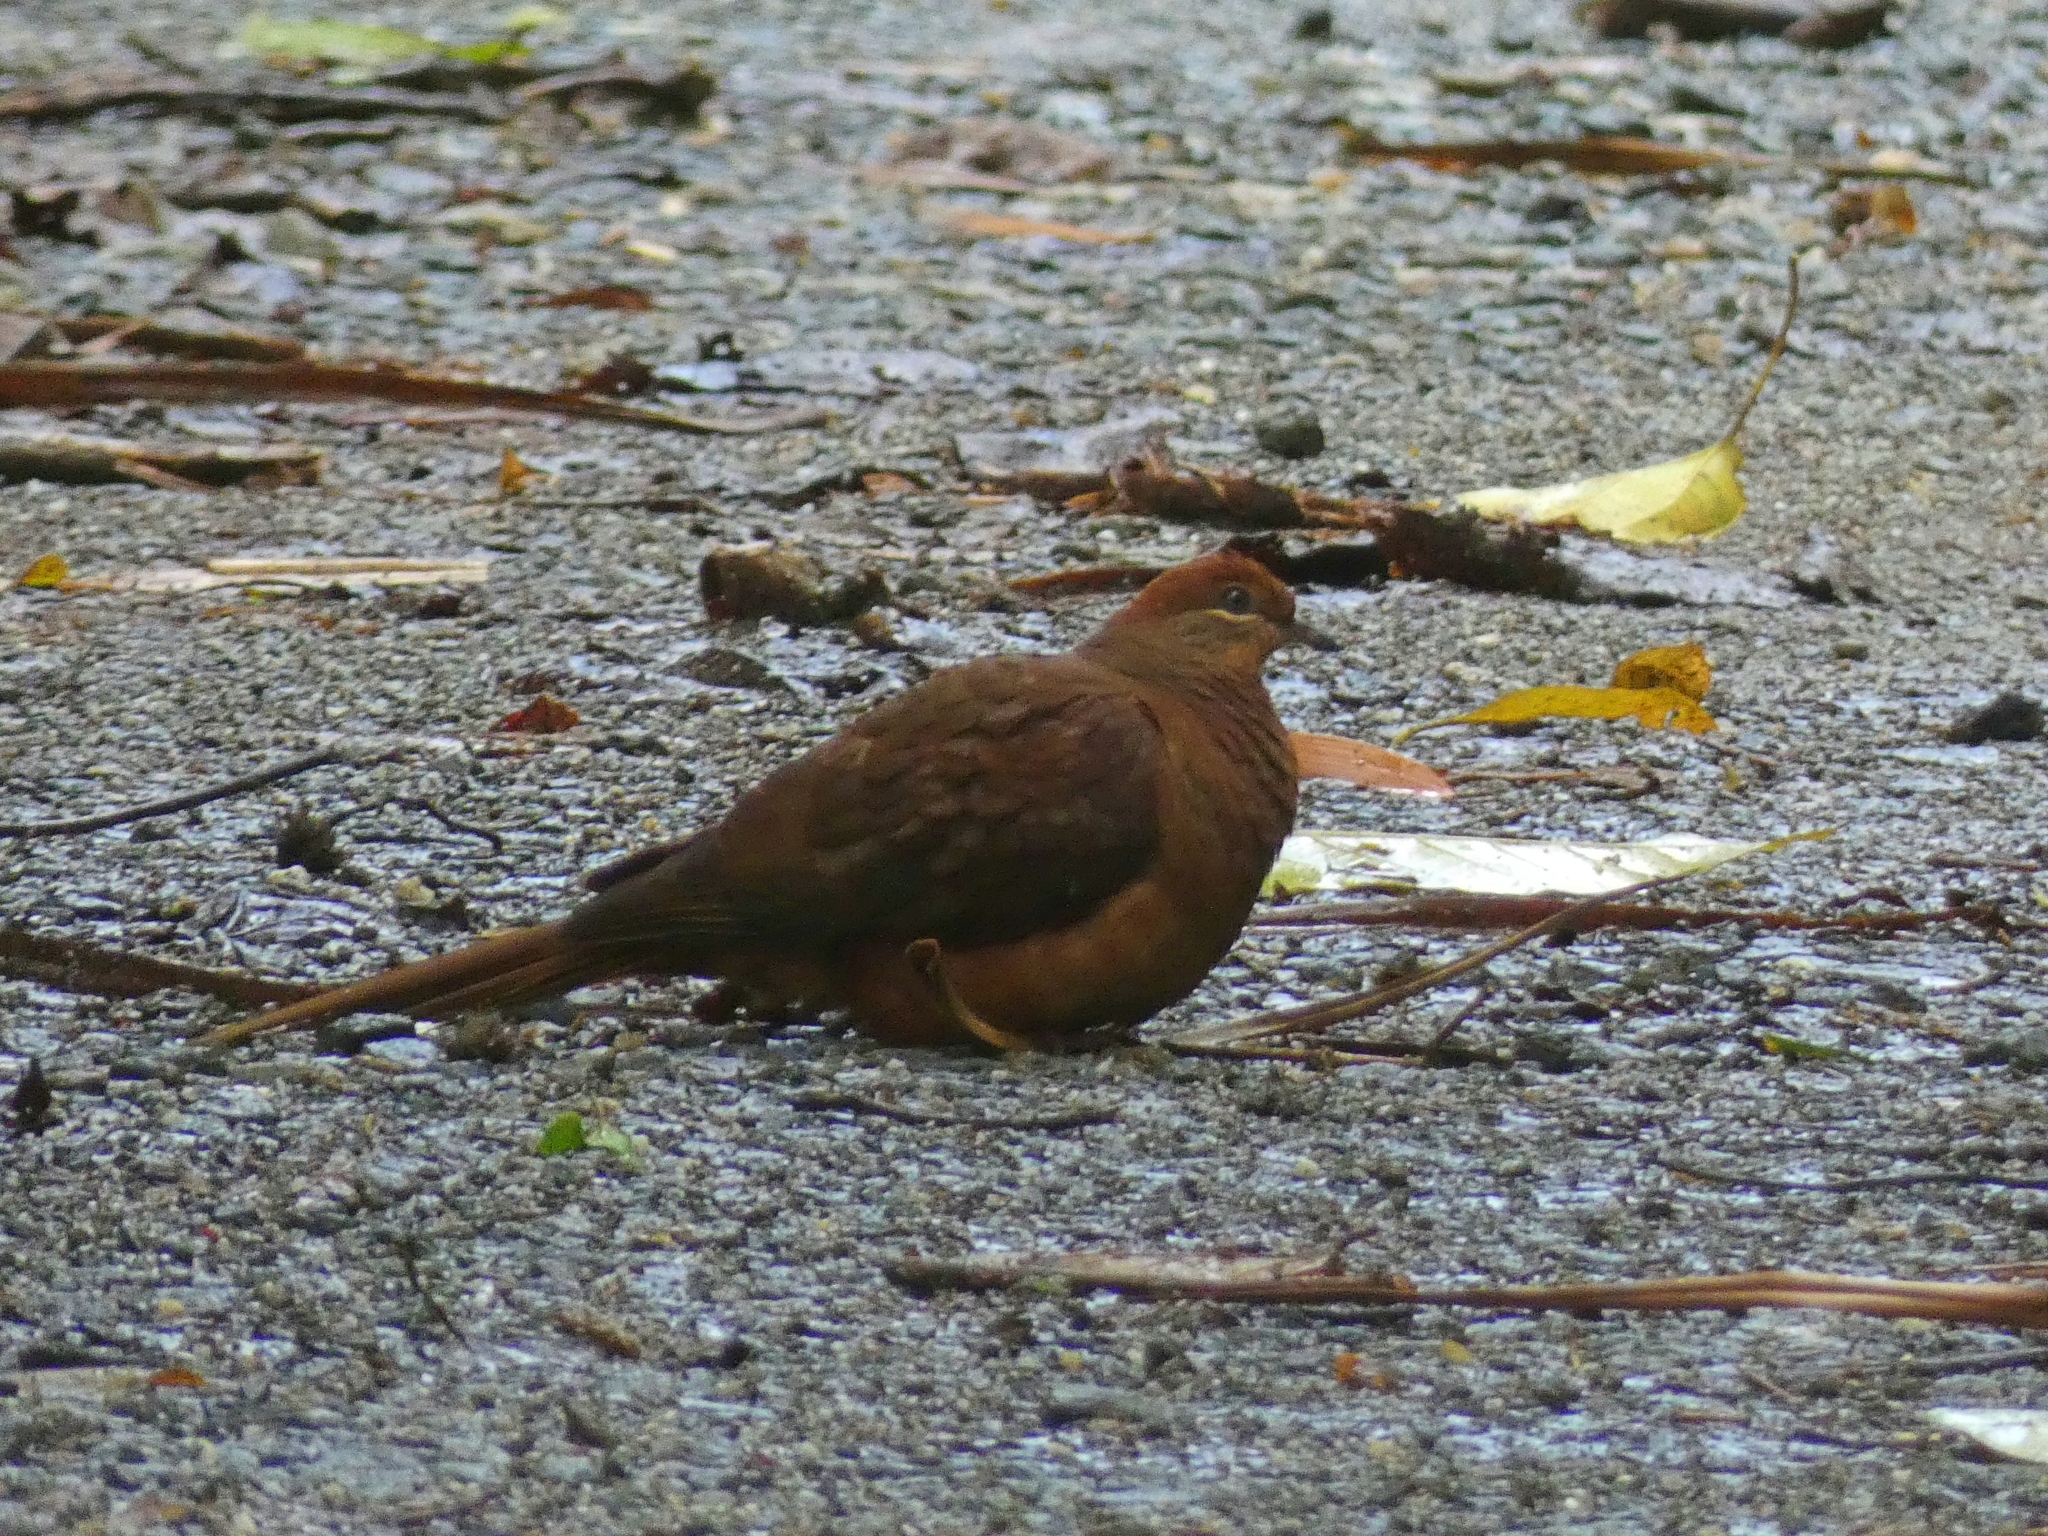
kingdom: Animalia
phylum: Chordata
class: Aves
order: Columbiformes
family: Columbidae
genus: Macropygia
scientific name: Macropygia phasianella
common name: Brown cuckoo-dove
